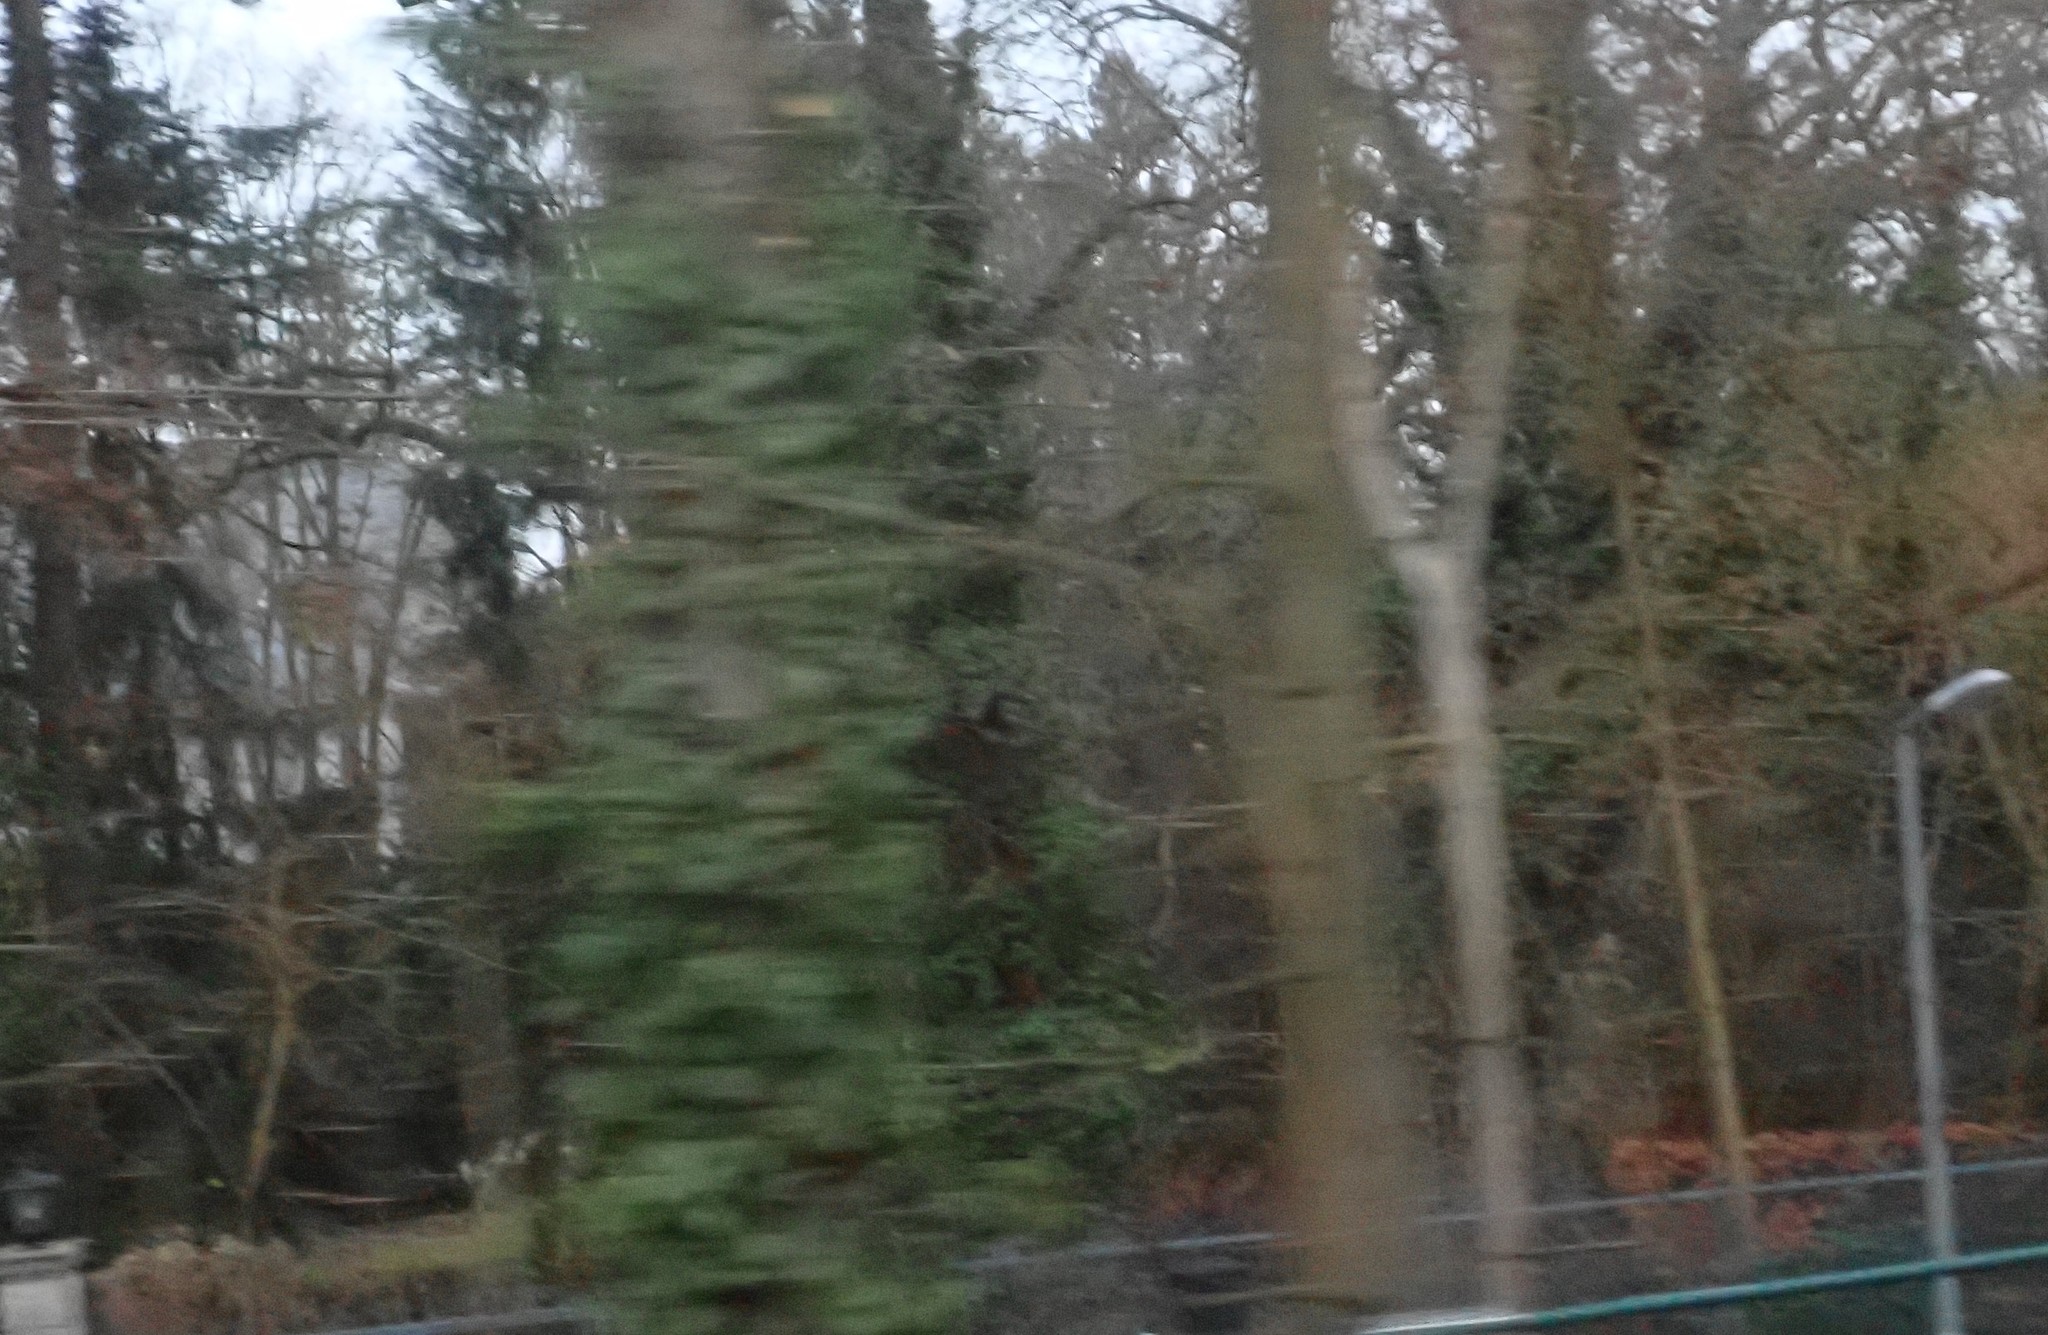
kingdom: Plantae
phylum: Tracheophyta
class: Magnoliopsida
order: Apiales
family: Araliaceae
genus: Hedera
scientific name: Hedera helix
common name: Ivy
